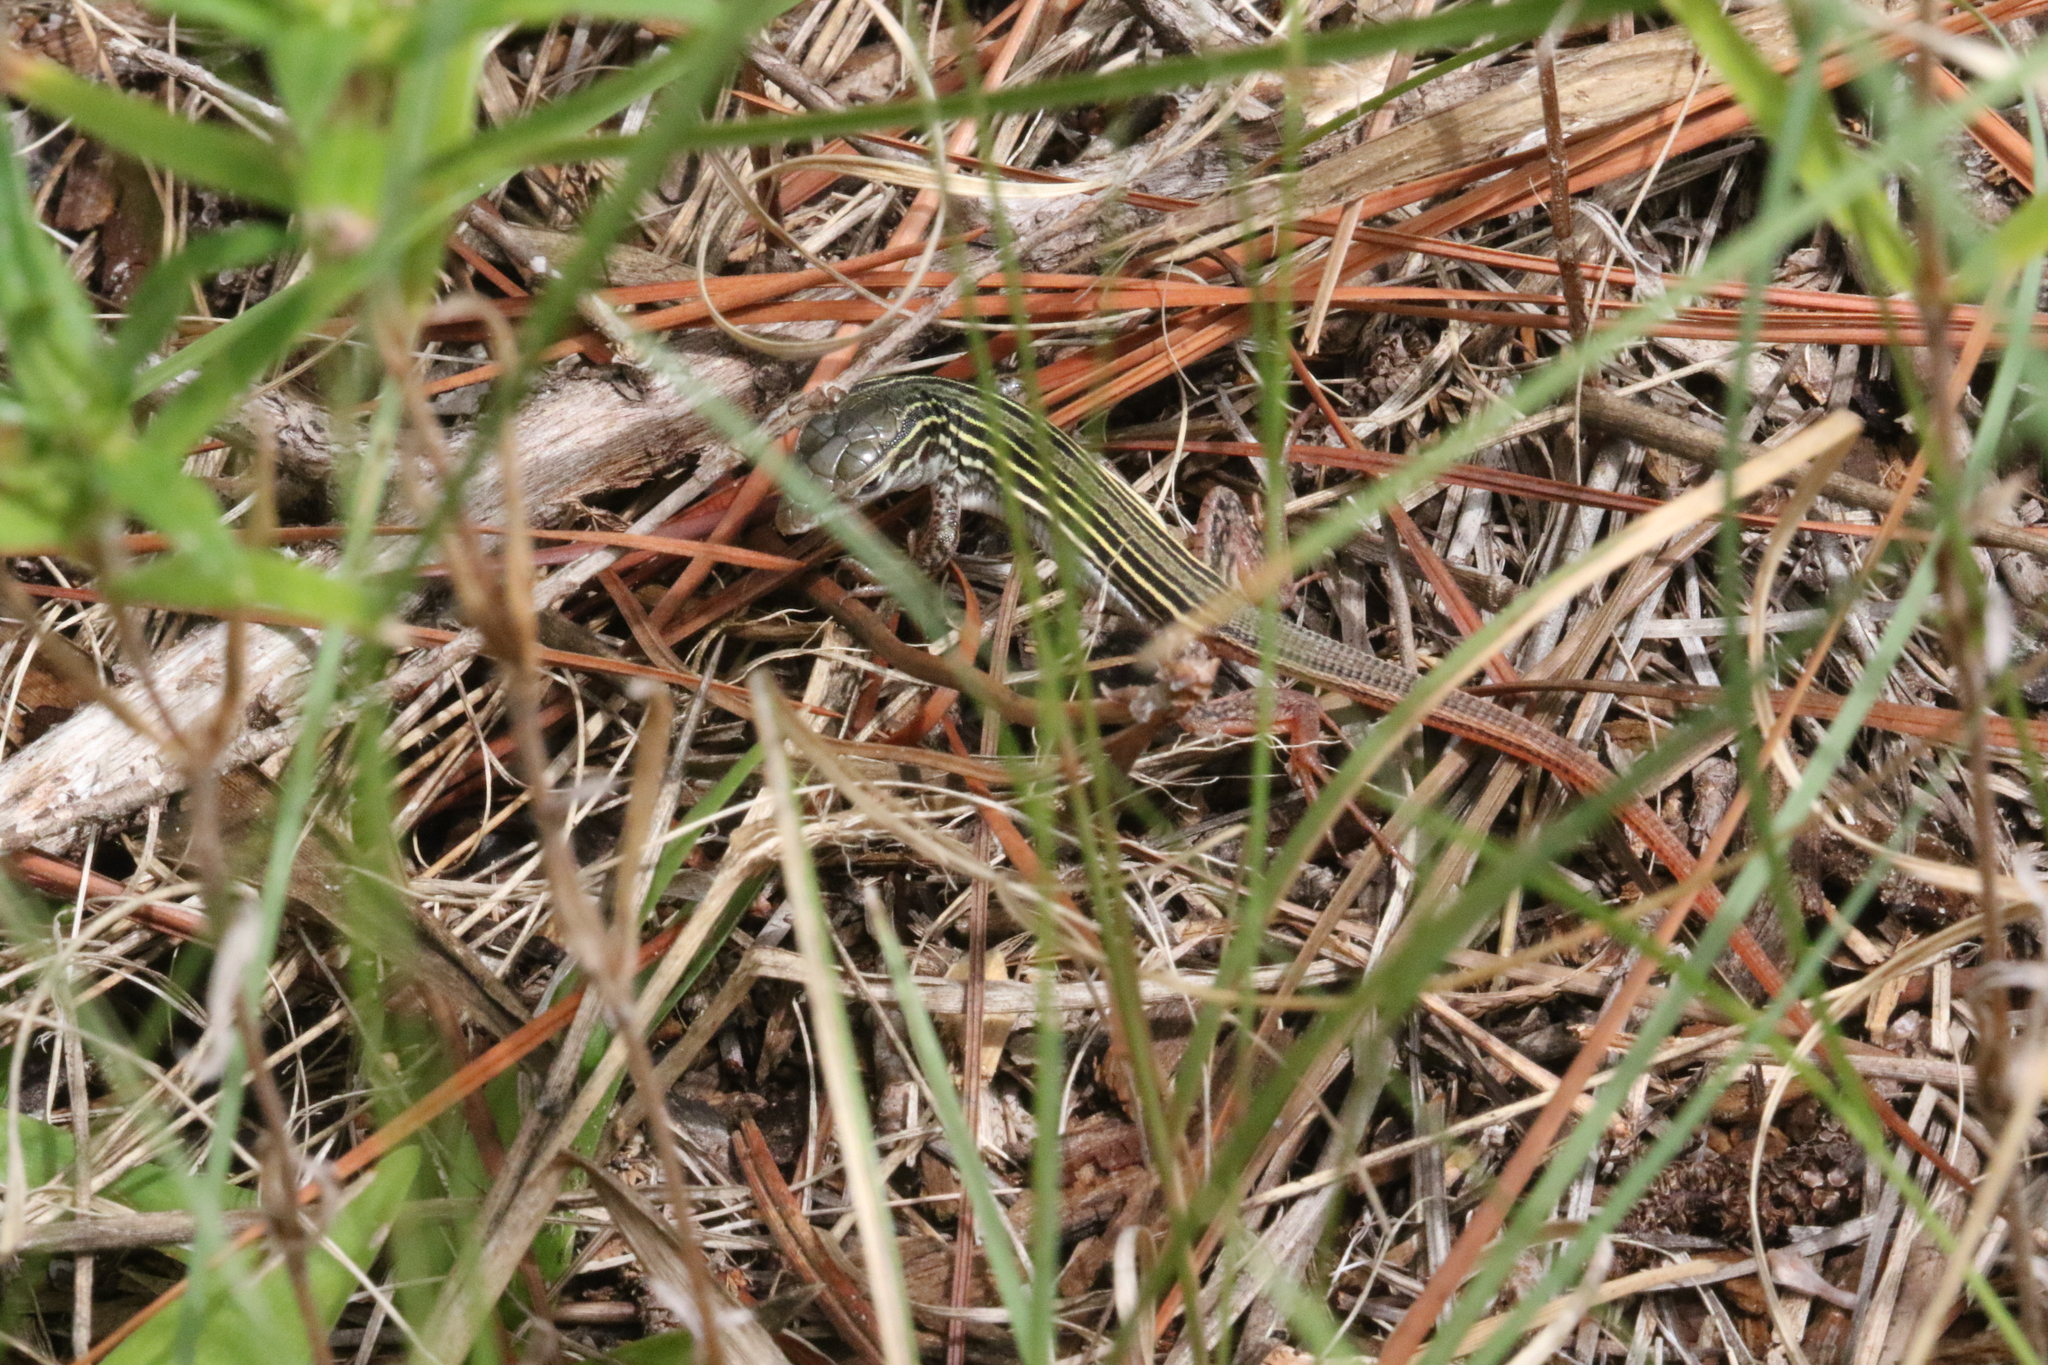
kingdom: Animalia
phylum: Chordata
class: Squamata
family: Teiidae
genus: Aspidoscelis
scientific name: Aspidoscelis gularis
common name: Eastern spotted whiptail
